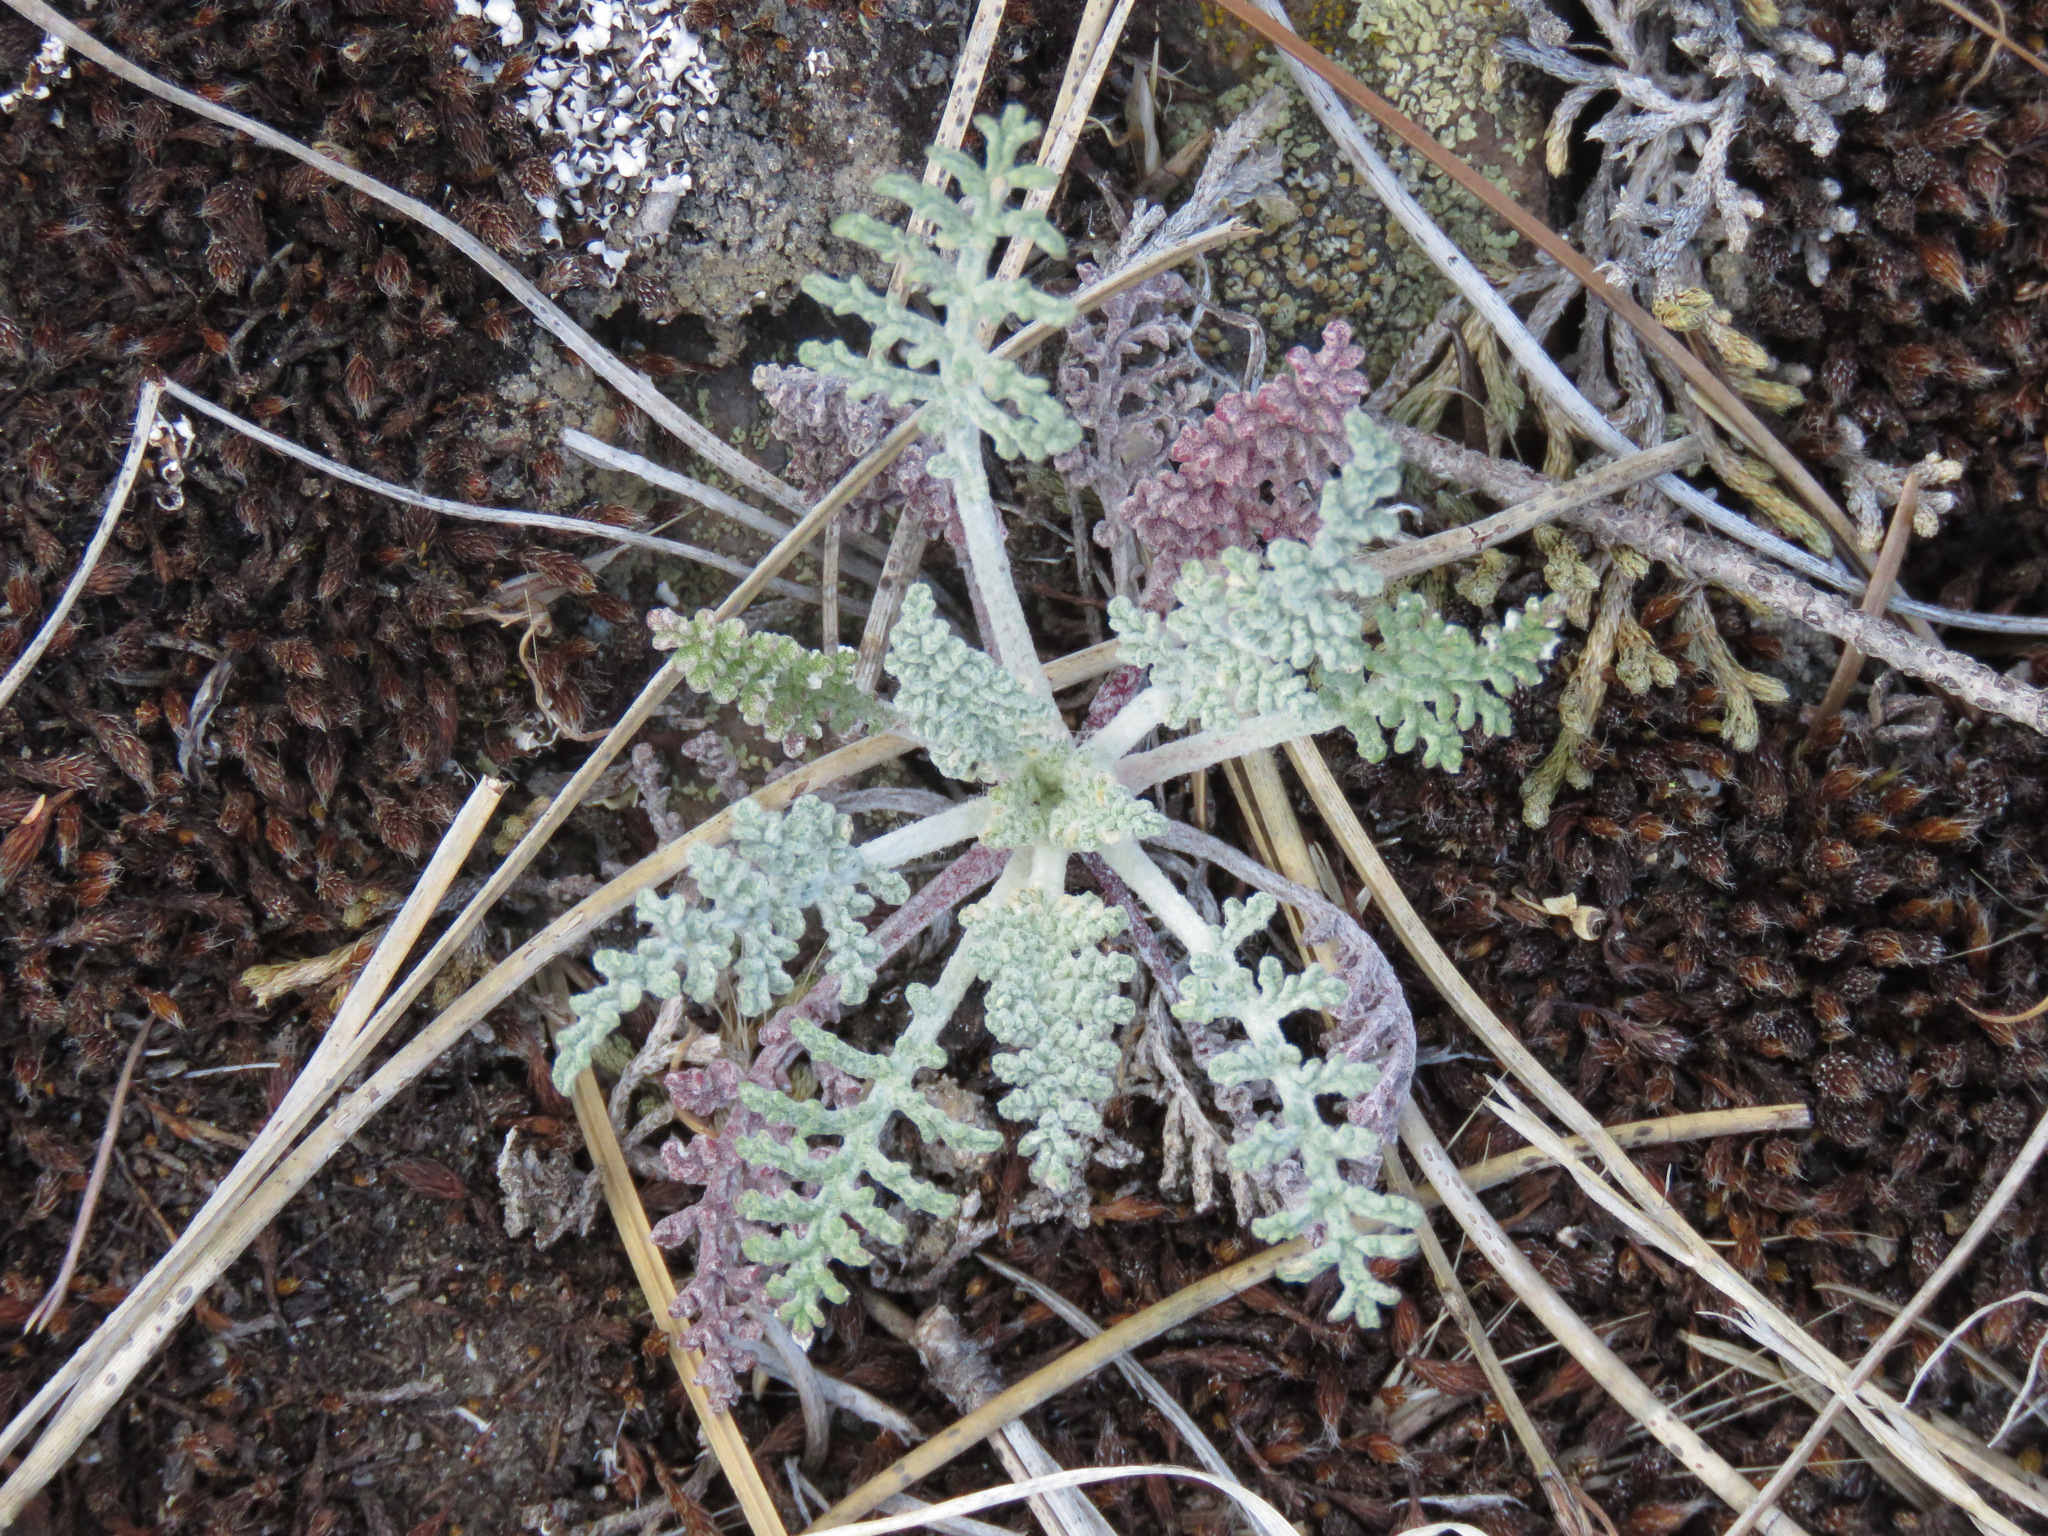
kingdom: Plantae
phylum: Tracheophyta
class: Magnoliopsida
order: Asterales
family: Asteraceae
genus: Chaenactis
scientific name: Chaenactis douglasii
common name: Hoary pincushion
